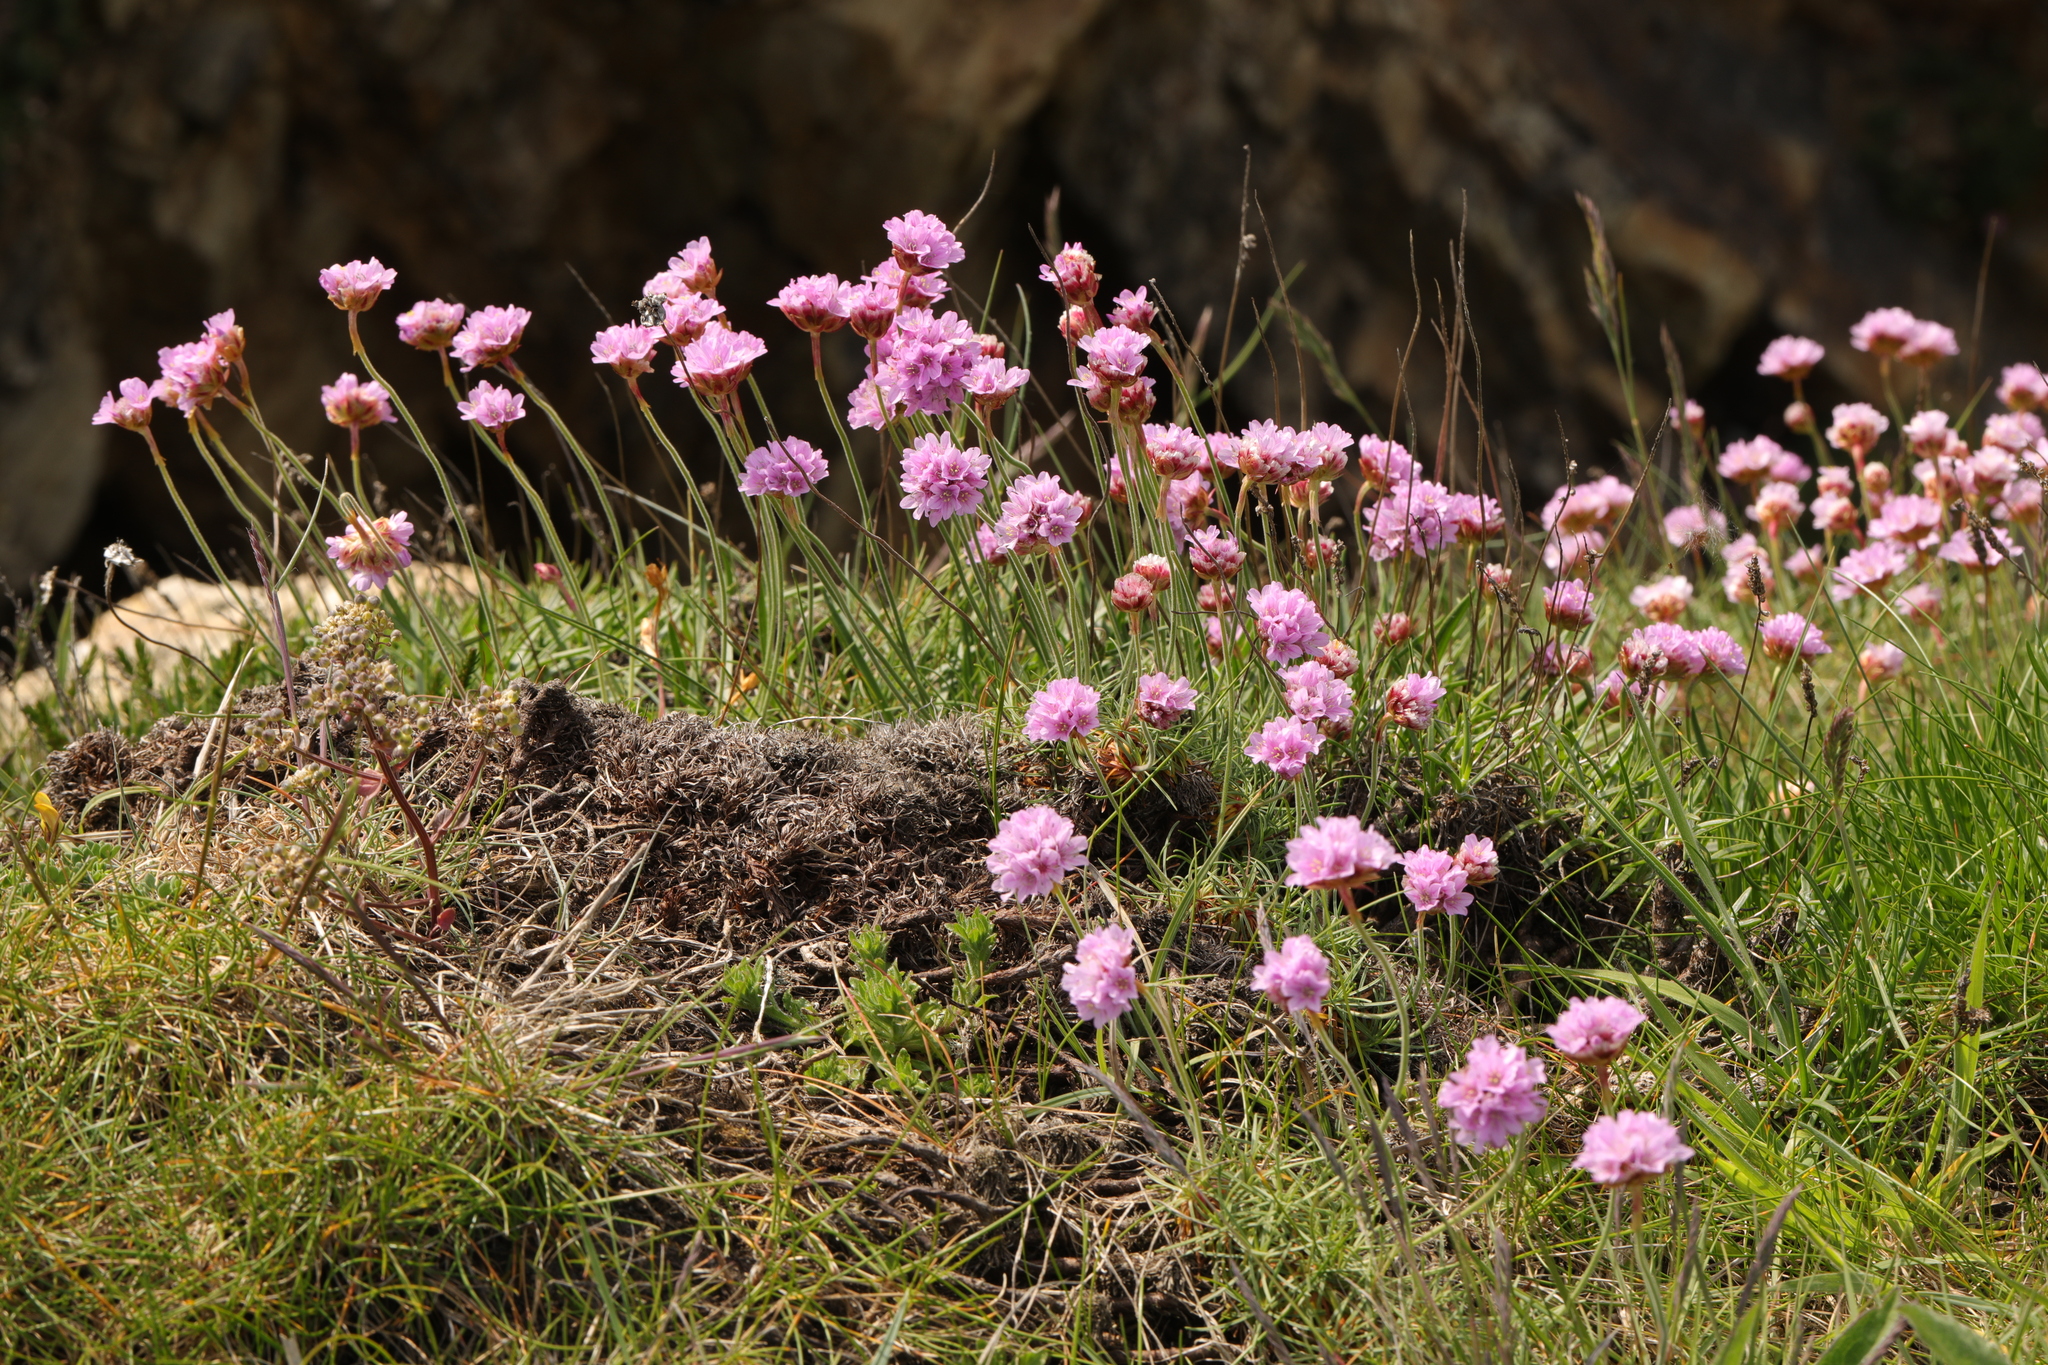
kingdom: Plantae
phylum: Tracheophyta
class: Magnoliopsida
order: Caryophyllales
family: Plumbaginaceae
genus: Armeria
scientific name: Armeria maritima
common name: Thrift
